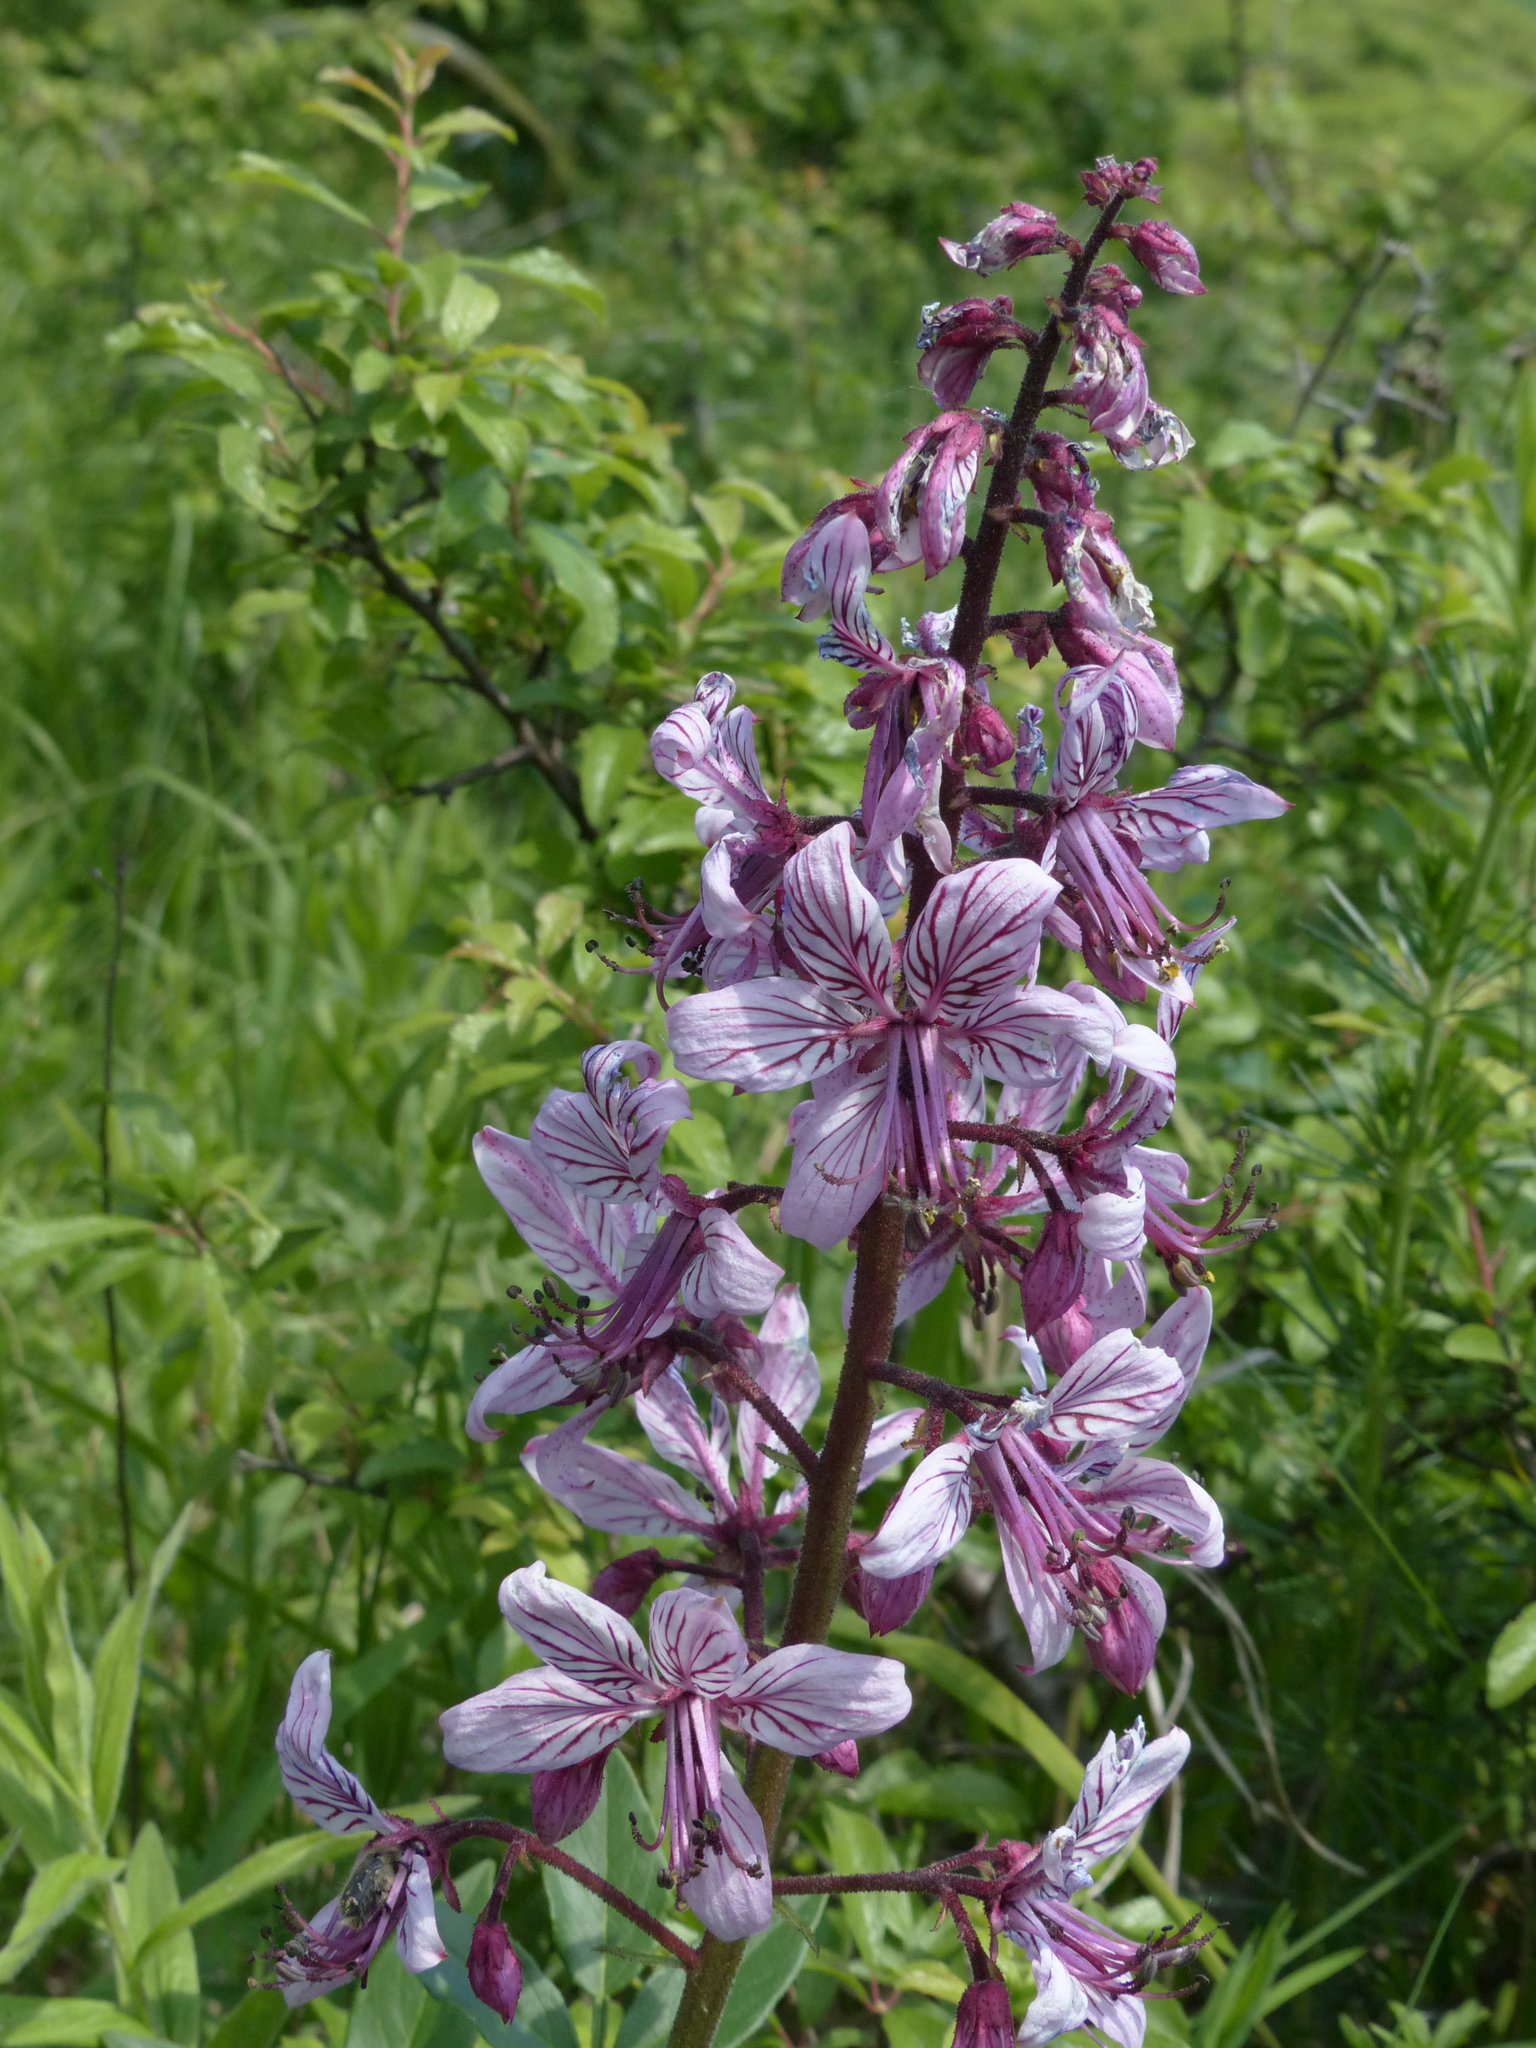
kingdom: Plantae
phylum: Tracheophyta
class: Magnoliopsida
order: Sapindales
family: Rutaceae
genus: Dictamnus
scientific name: Dictamnus albus
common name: Gasplant
